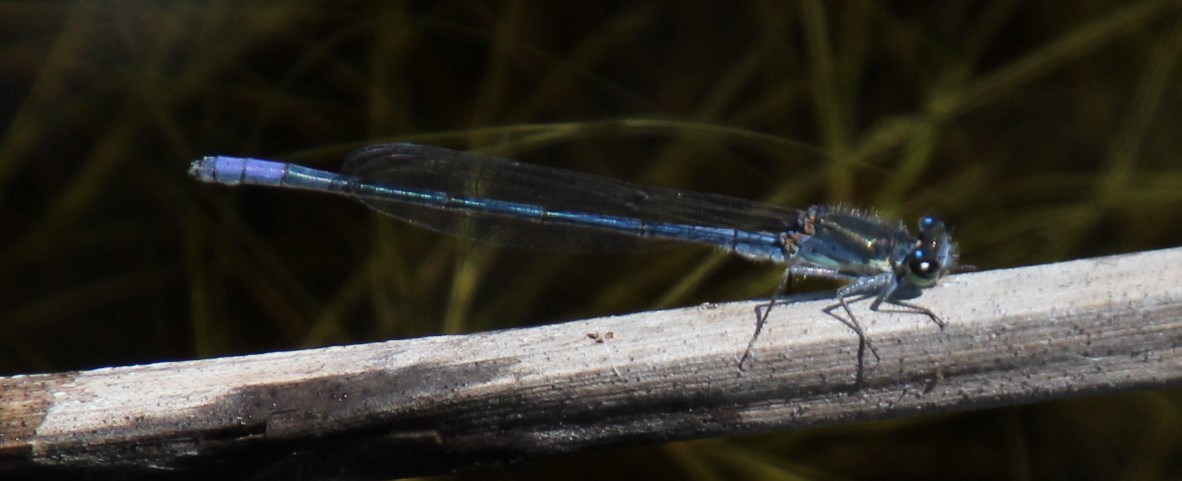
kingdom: Animalia
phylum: Arthropoda
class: Insecta
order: Odonata
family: Coenagrionidae
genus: Pseudagrion
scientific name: Pseudagrion draconis
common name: Mountain sprite
